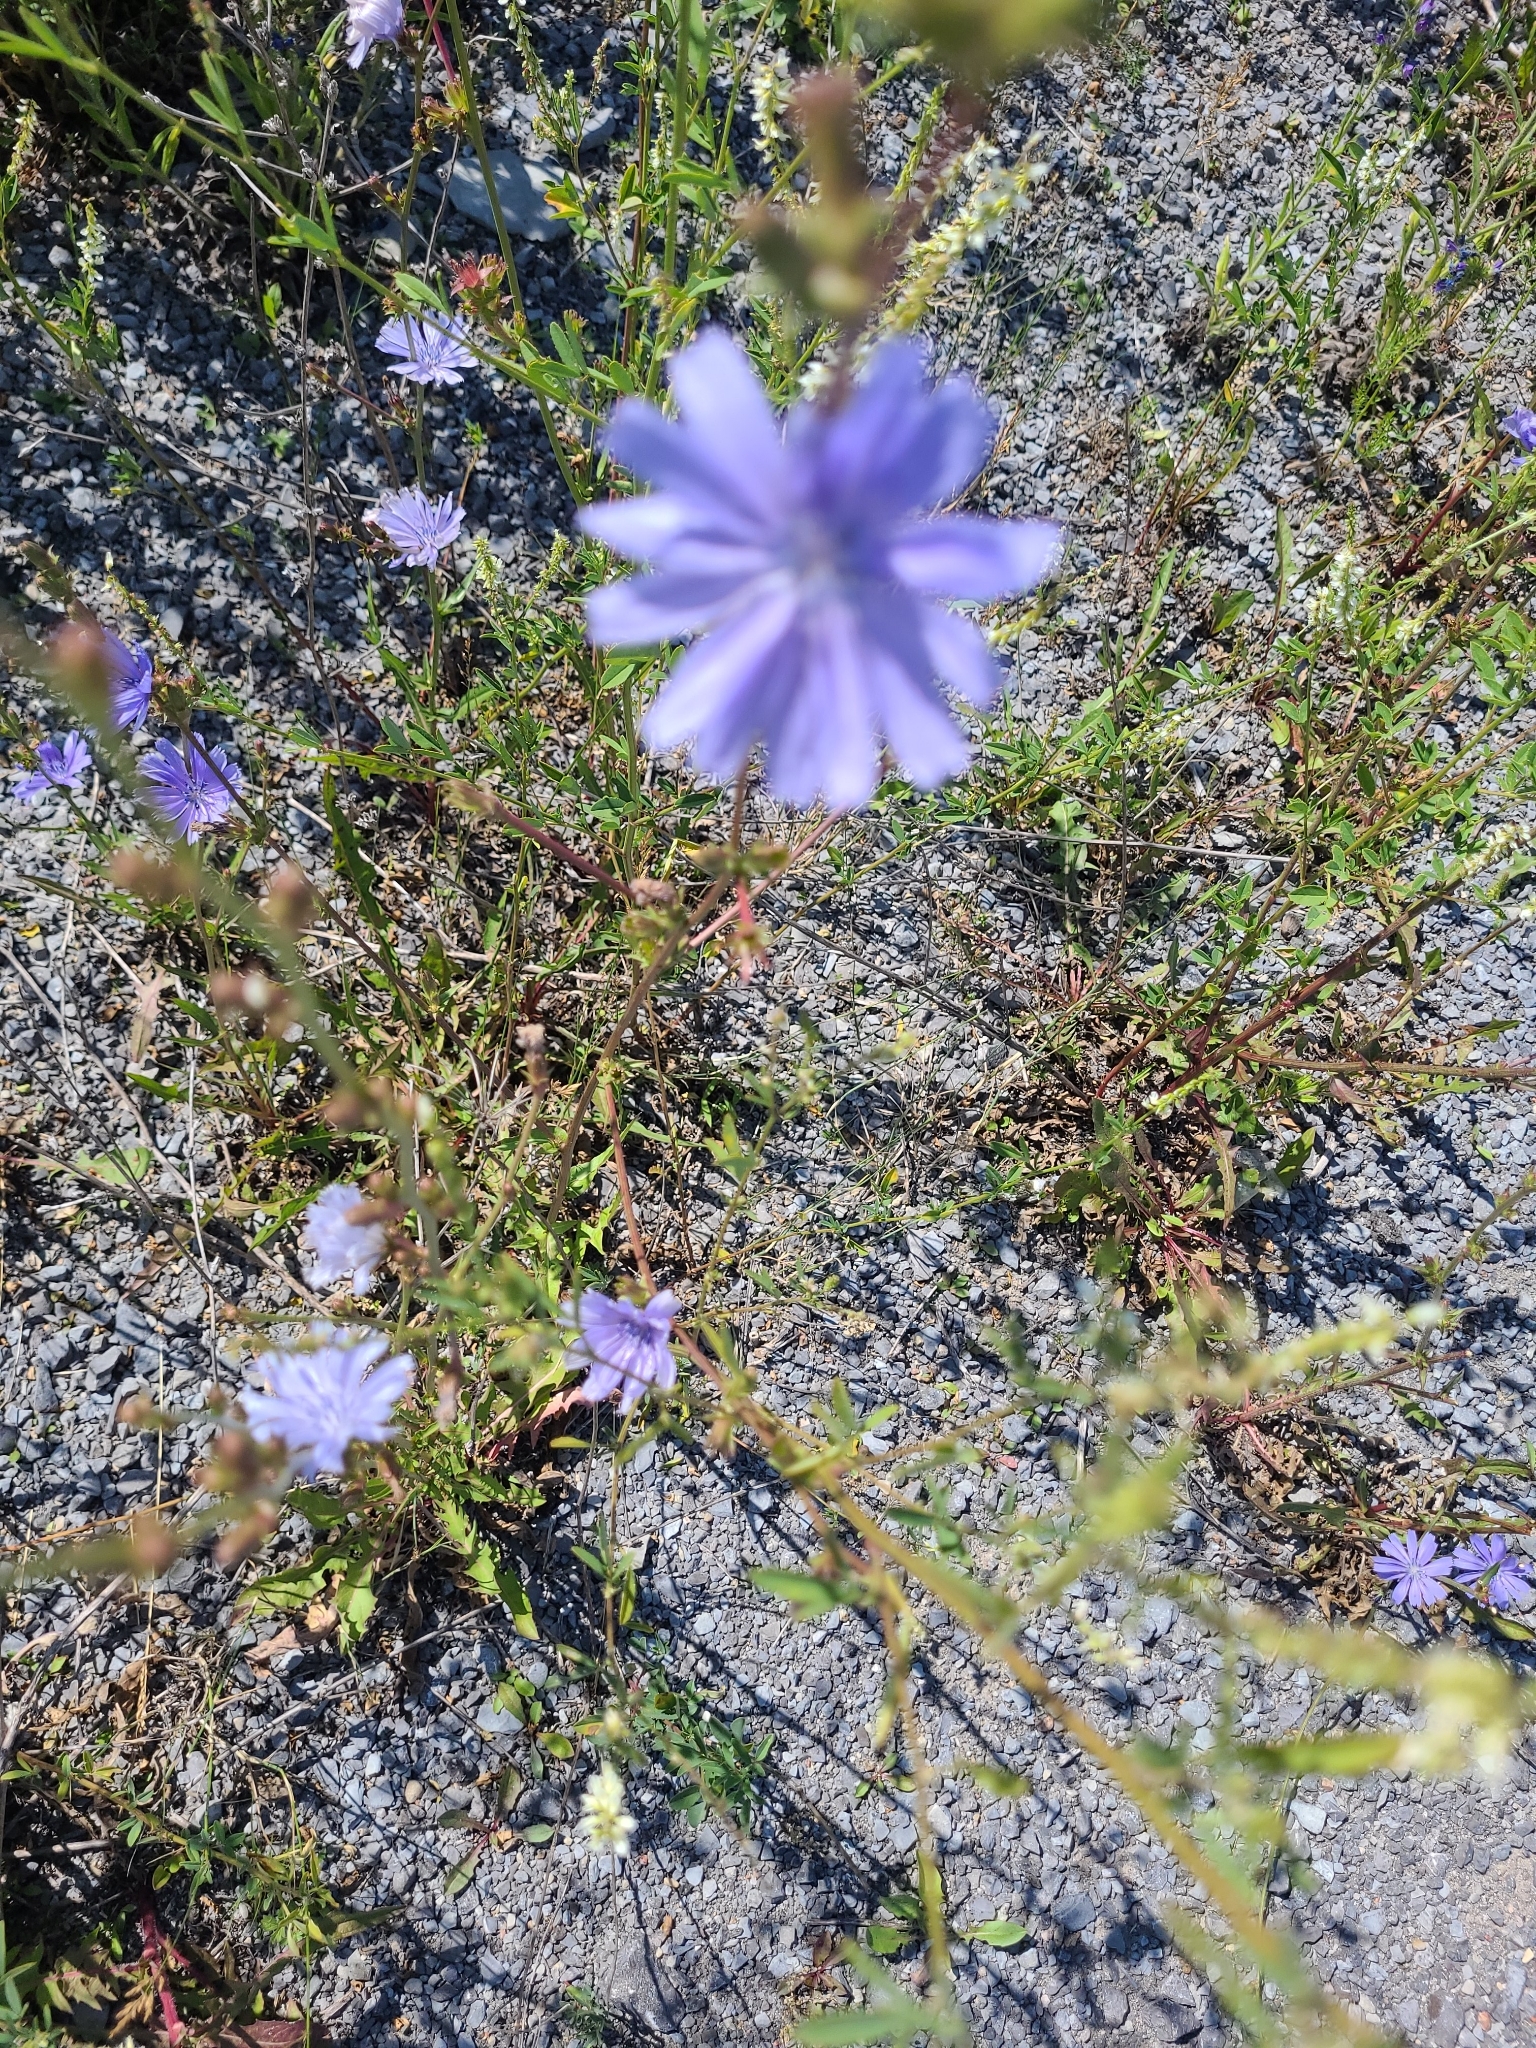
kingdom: Plantae
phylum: Tracheophyta
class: Magnoliopsida
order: Asterales
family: Asteraceae
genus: Cichorium
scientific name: Cichorium intybus
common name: Chicory
